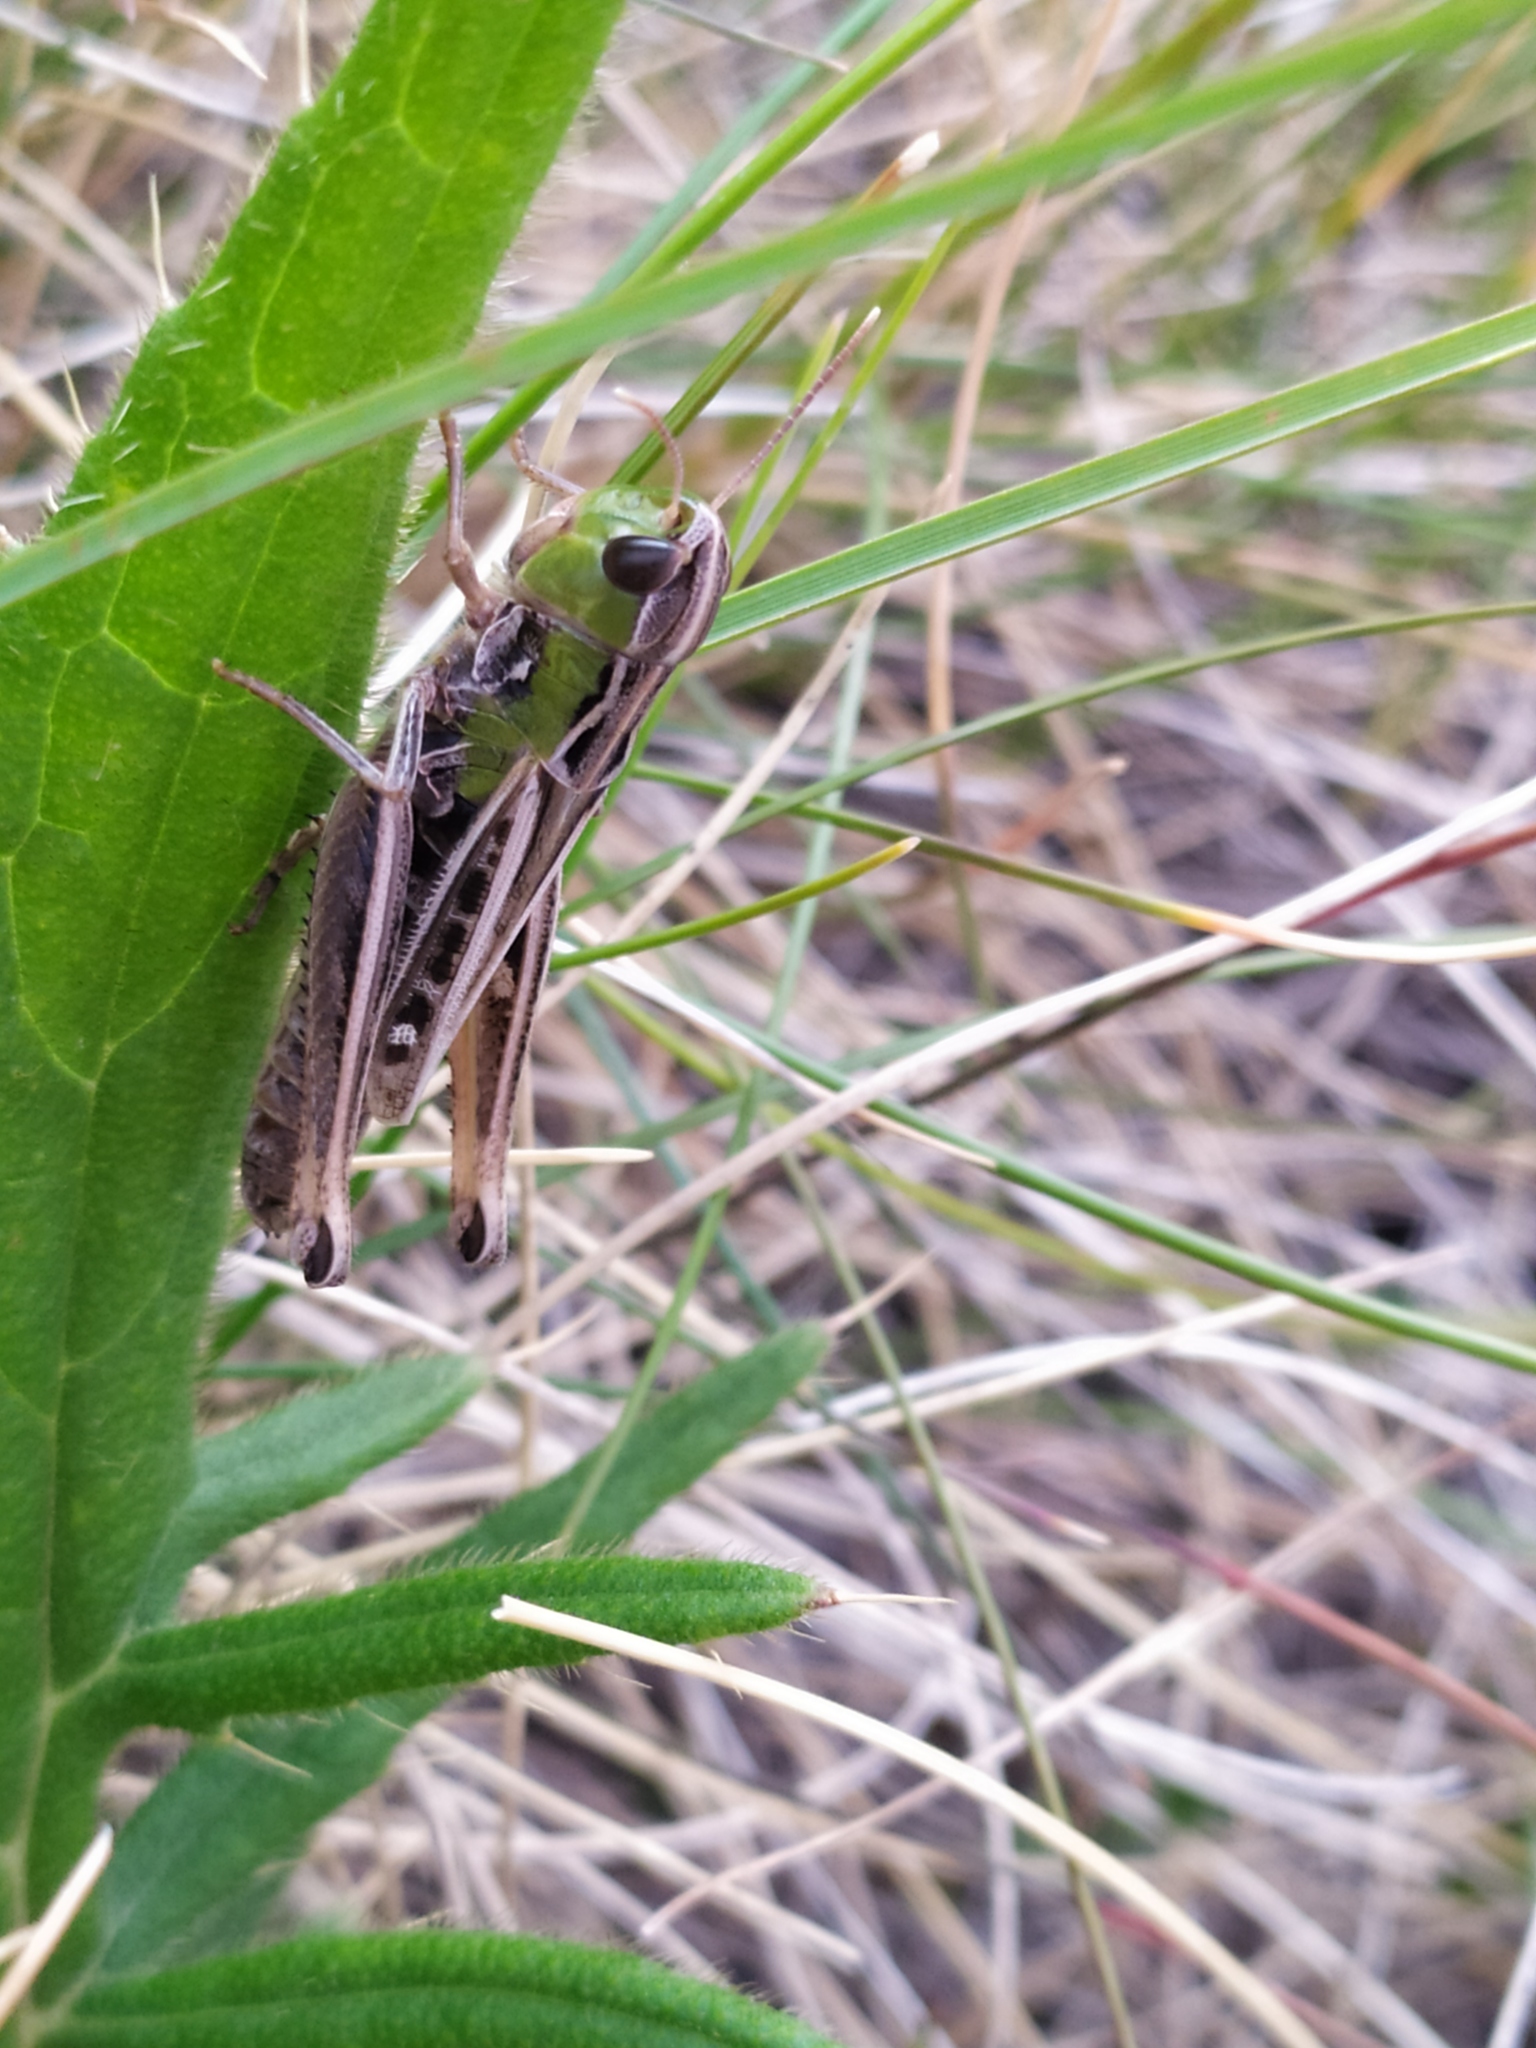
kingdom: Animalia
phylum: Arthropoda
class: Insecta
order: Orthoptera
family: Acrididae
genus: Stenobothrus
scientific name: Stenobothrus nigromaculatus
